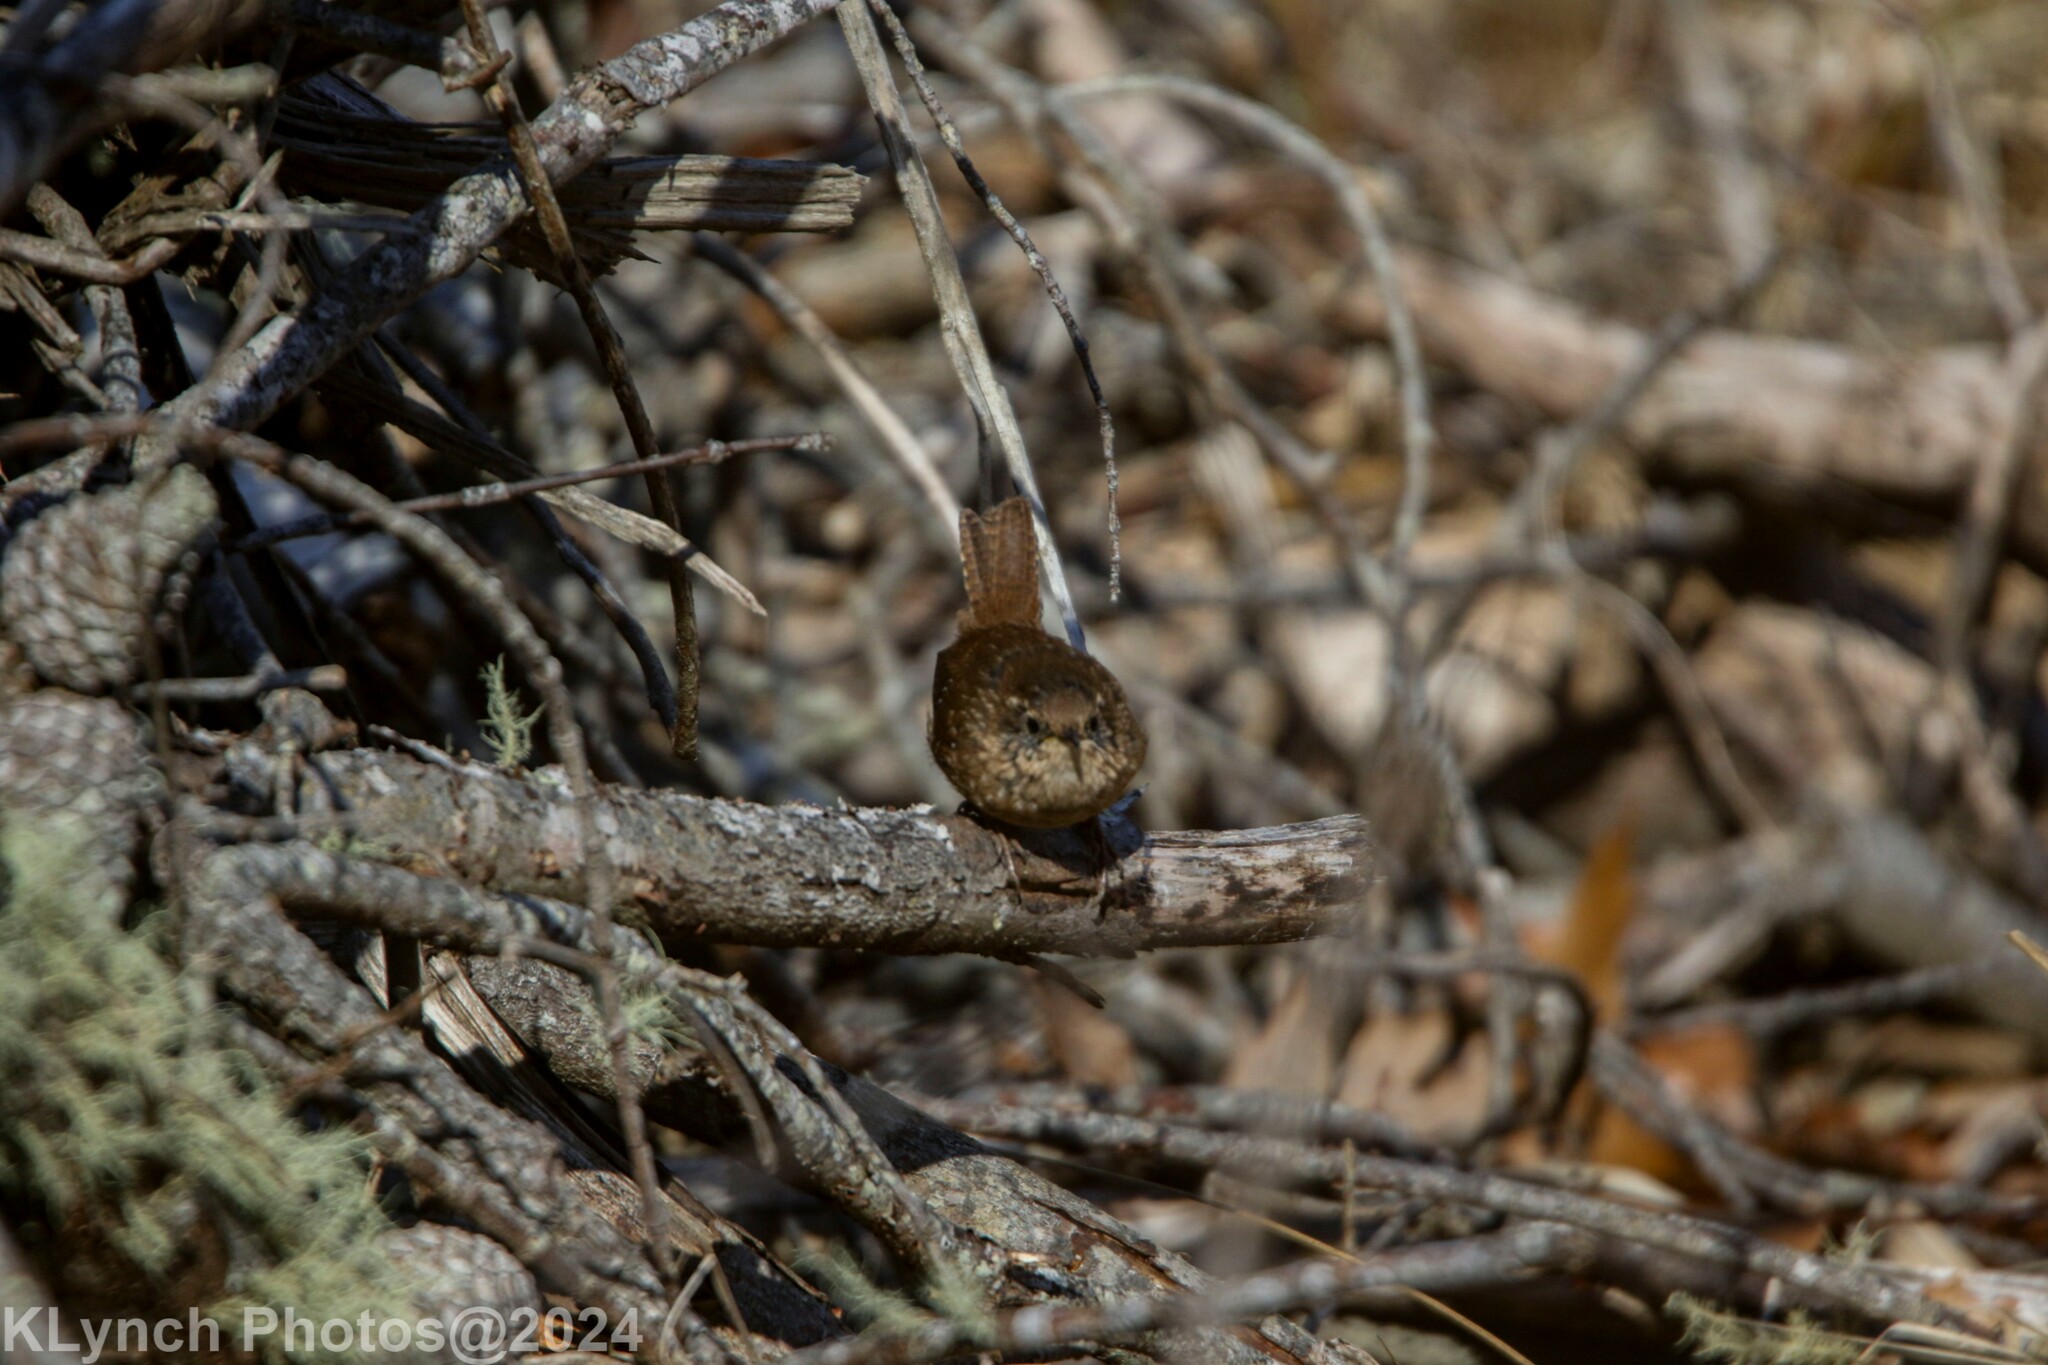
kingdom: Animalia
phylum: Chordata
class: Aves
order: Passeriformes
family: Troglodytidae
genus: Troglodytes
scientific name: Troglodytes hiemalis
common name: Winter wren
